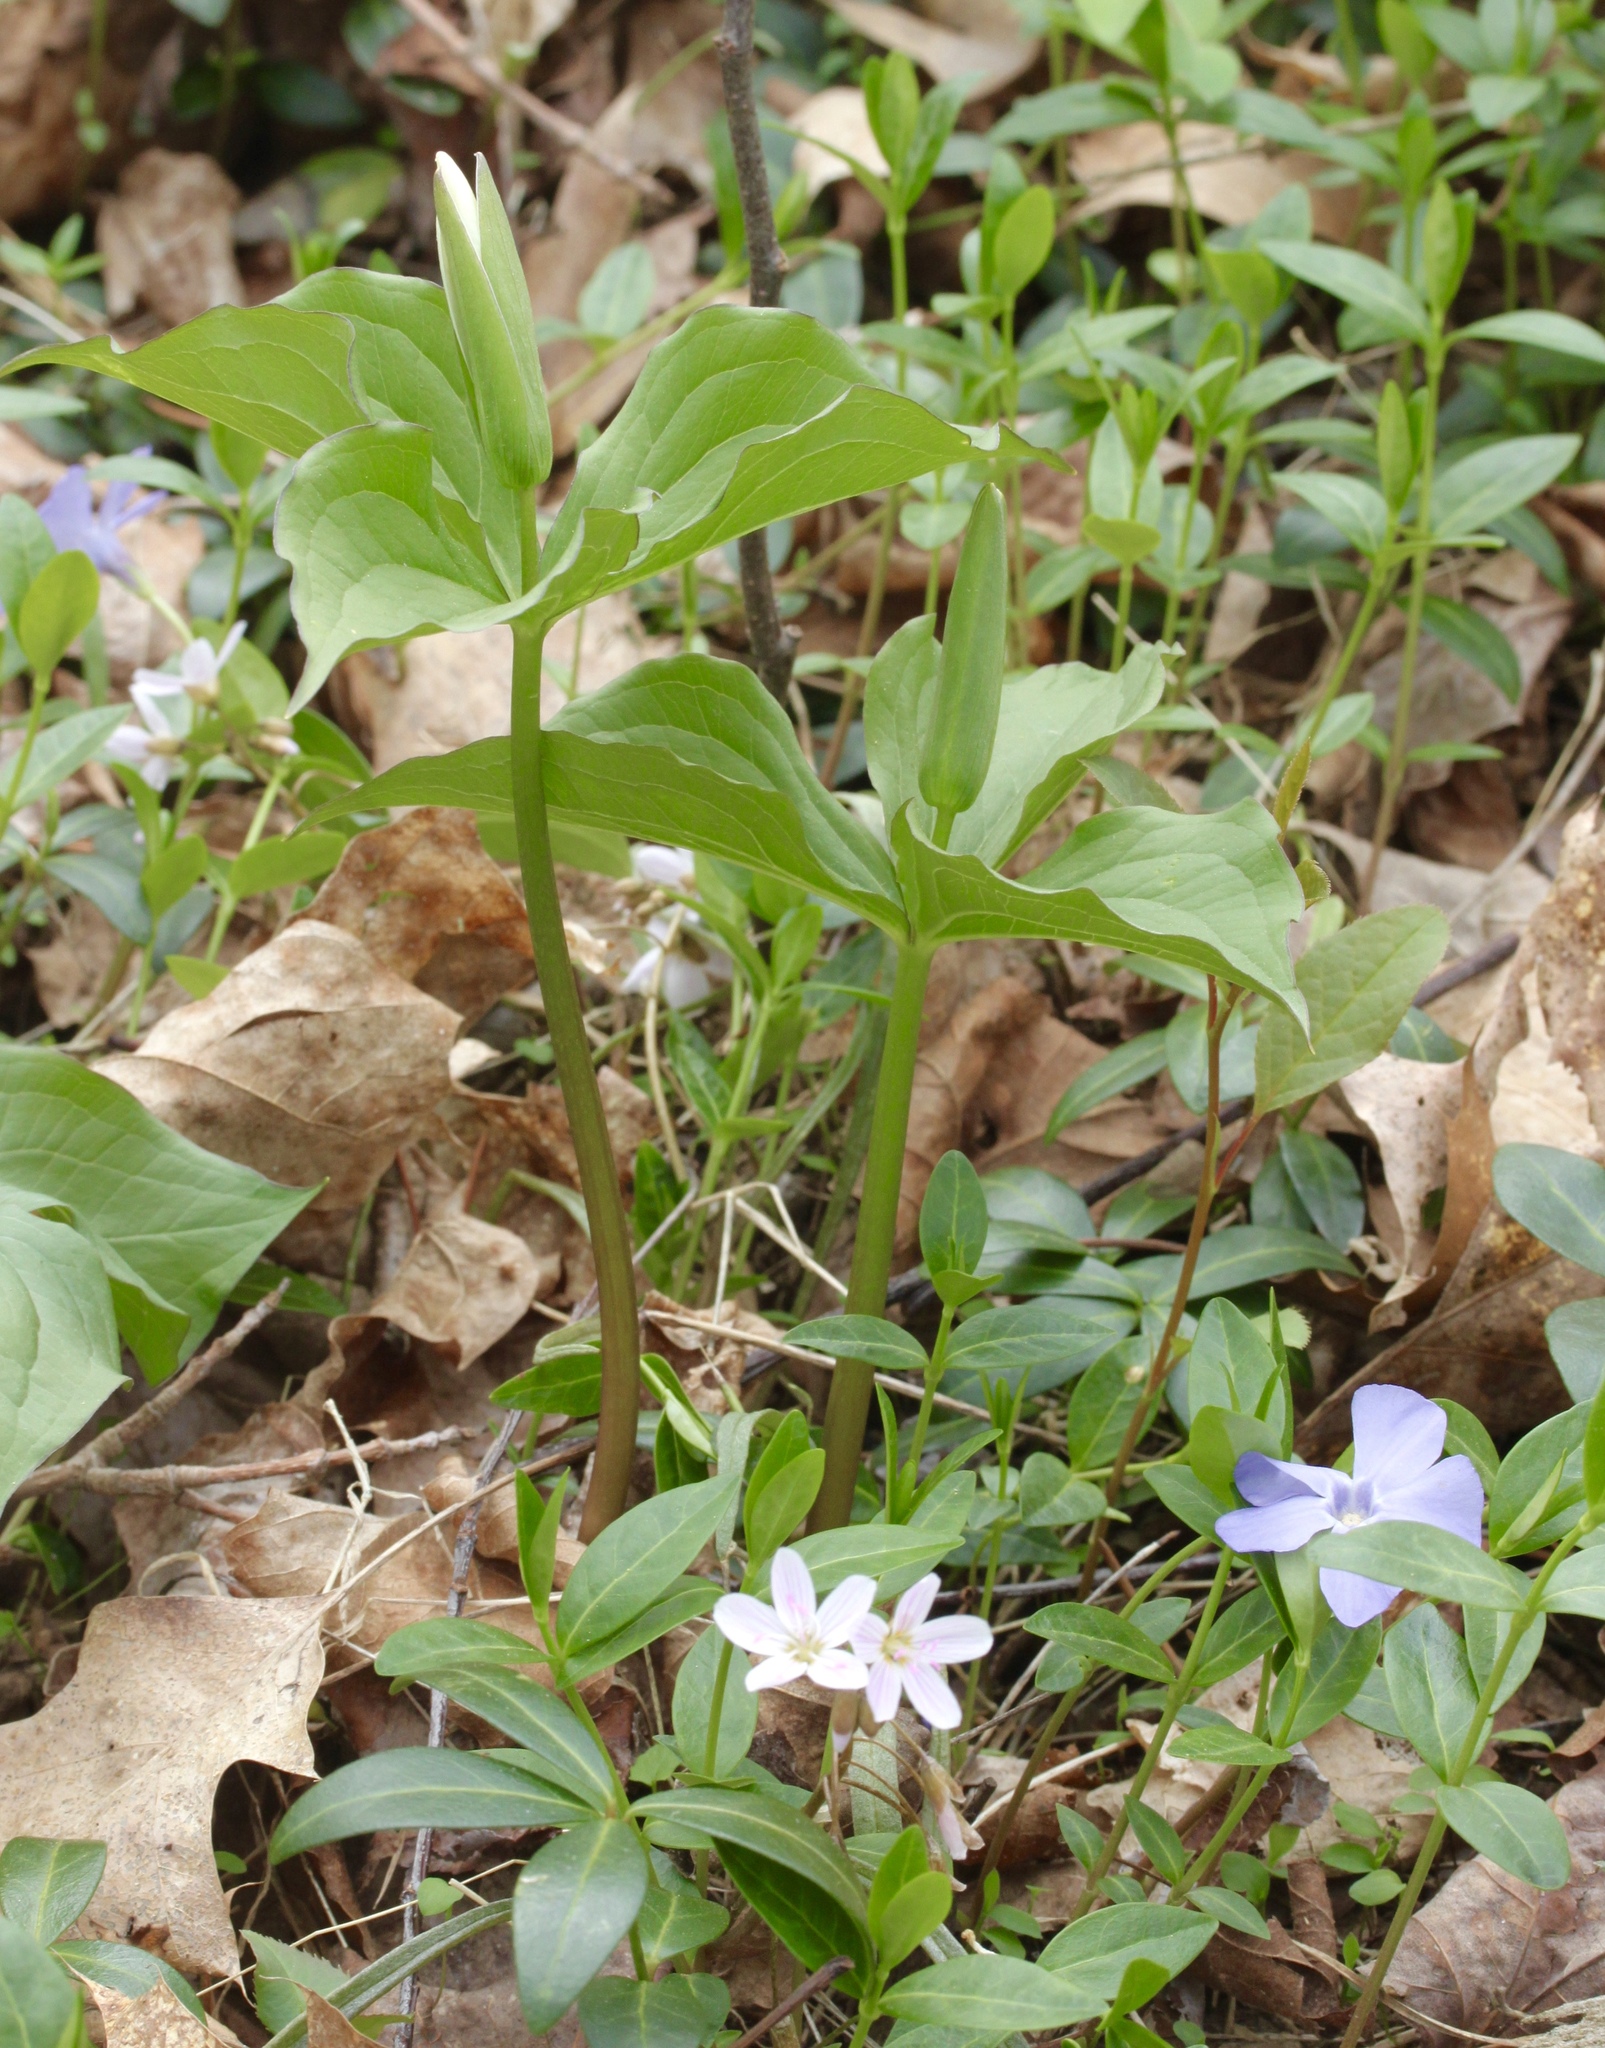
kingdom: Plantae
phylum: Tracheophyta
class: Liliopsida
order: Liliales
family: Melanthiaceae
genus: Trillium
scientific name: Trillium grandiflorum
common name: Great white trillium
